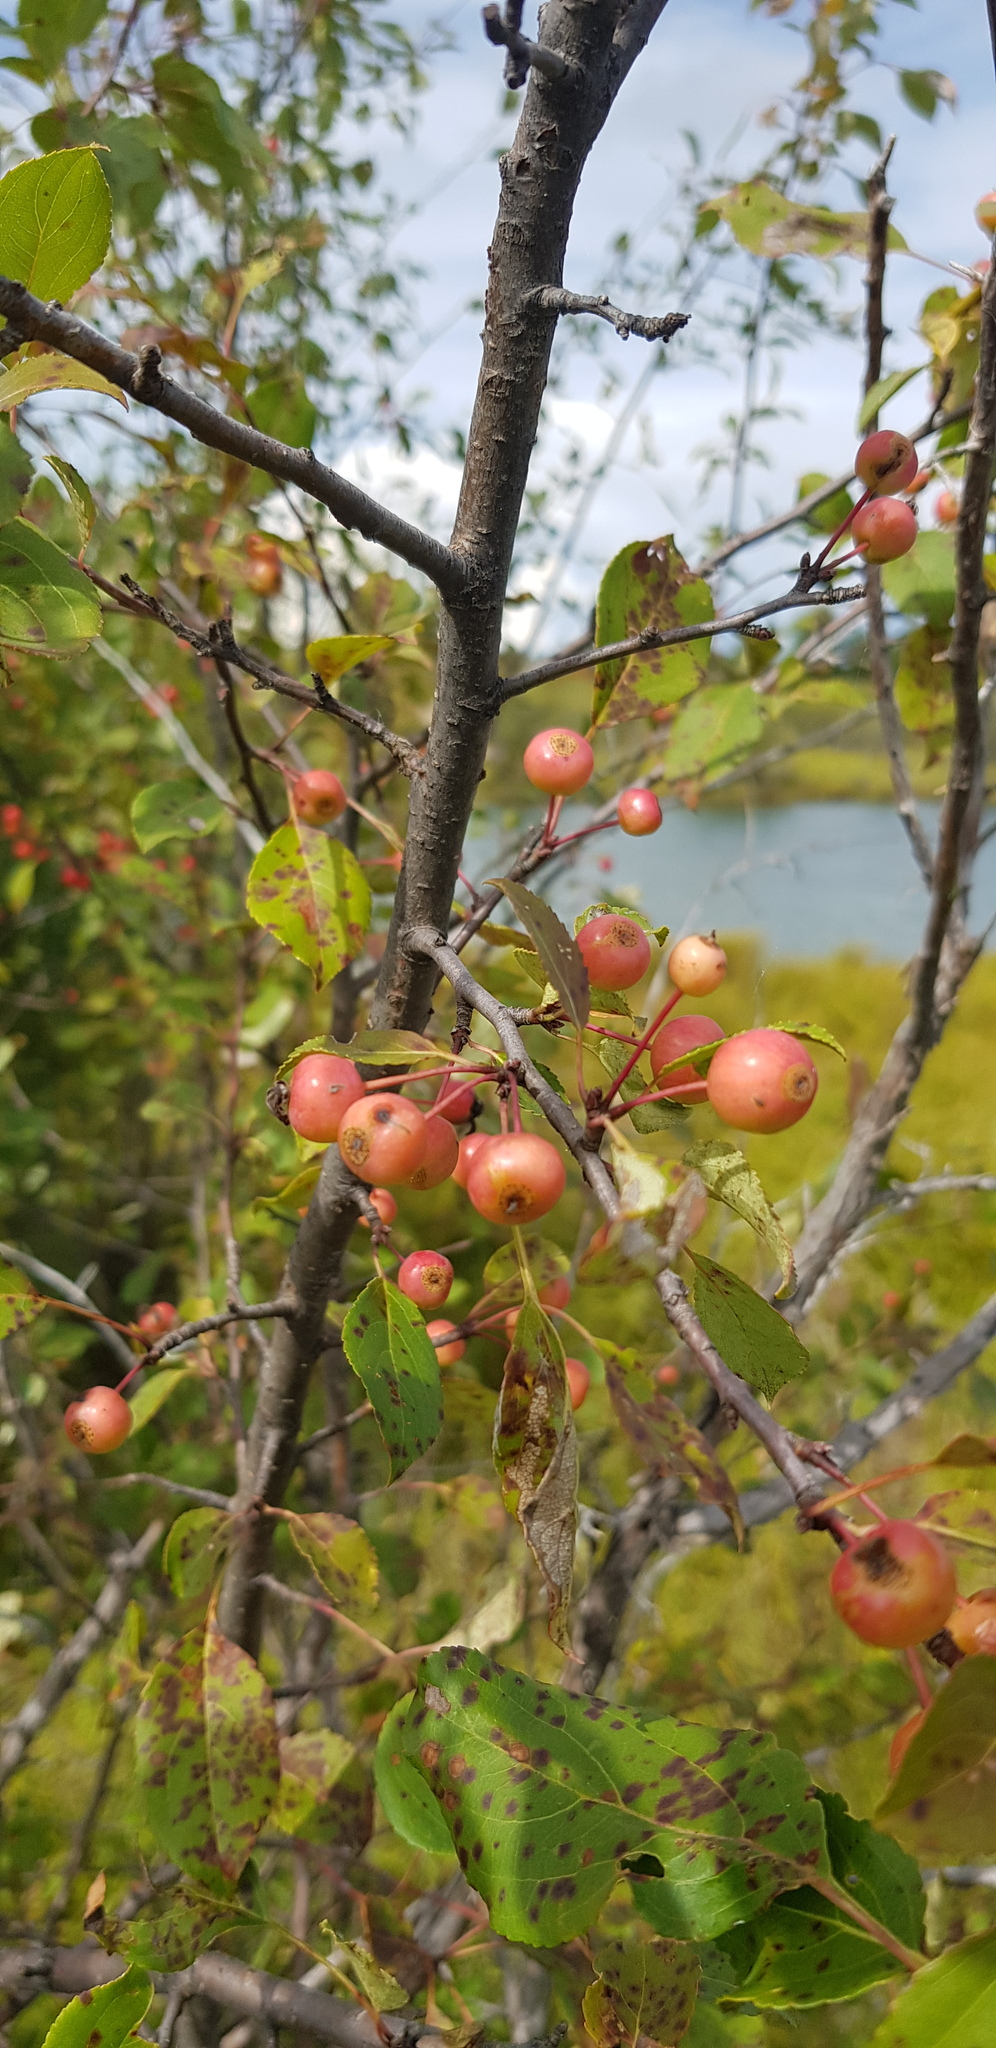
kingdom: Plantae
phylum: Tracheophyta
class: Magnoliopsida
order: Rosales
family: Rosaceae
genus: Malus
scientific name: Malus baccata
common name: Siberian crab
